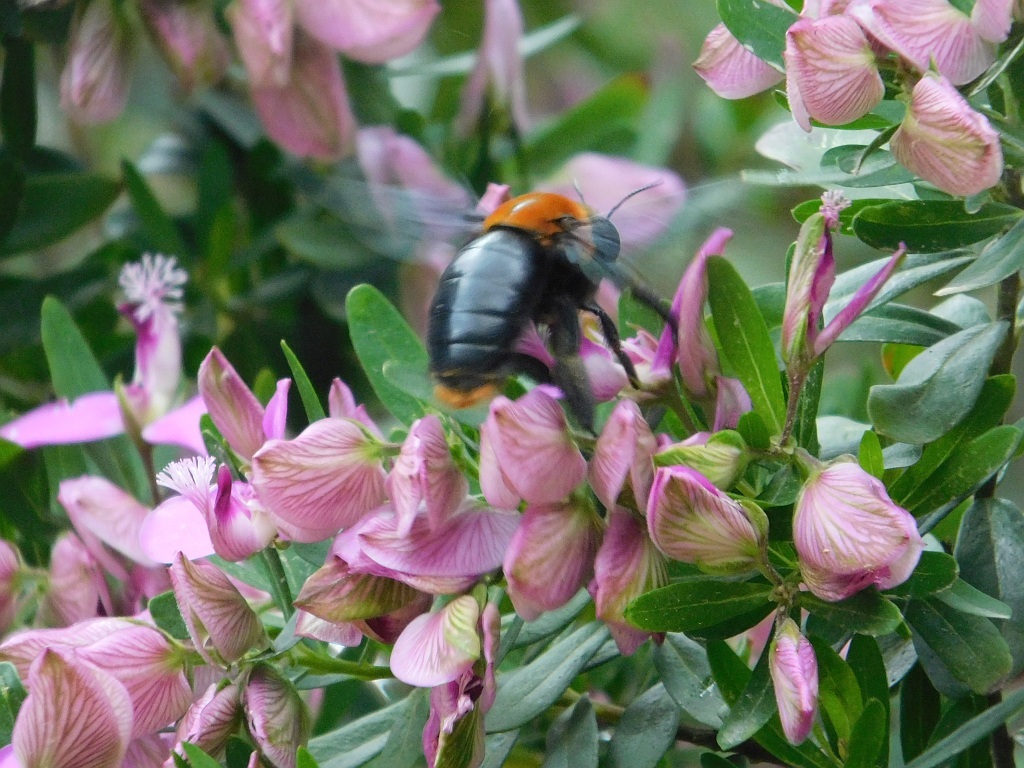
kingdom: Animalia
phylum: Arthropoda
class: Insecta
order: Hymenoptera
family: Apidae
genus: Xylocopa
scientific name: Xylocopa flavorufa
